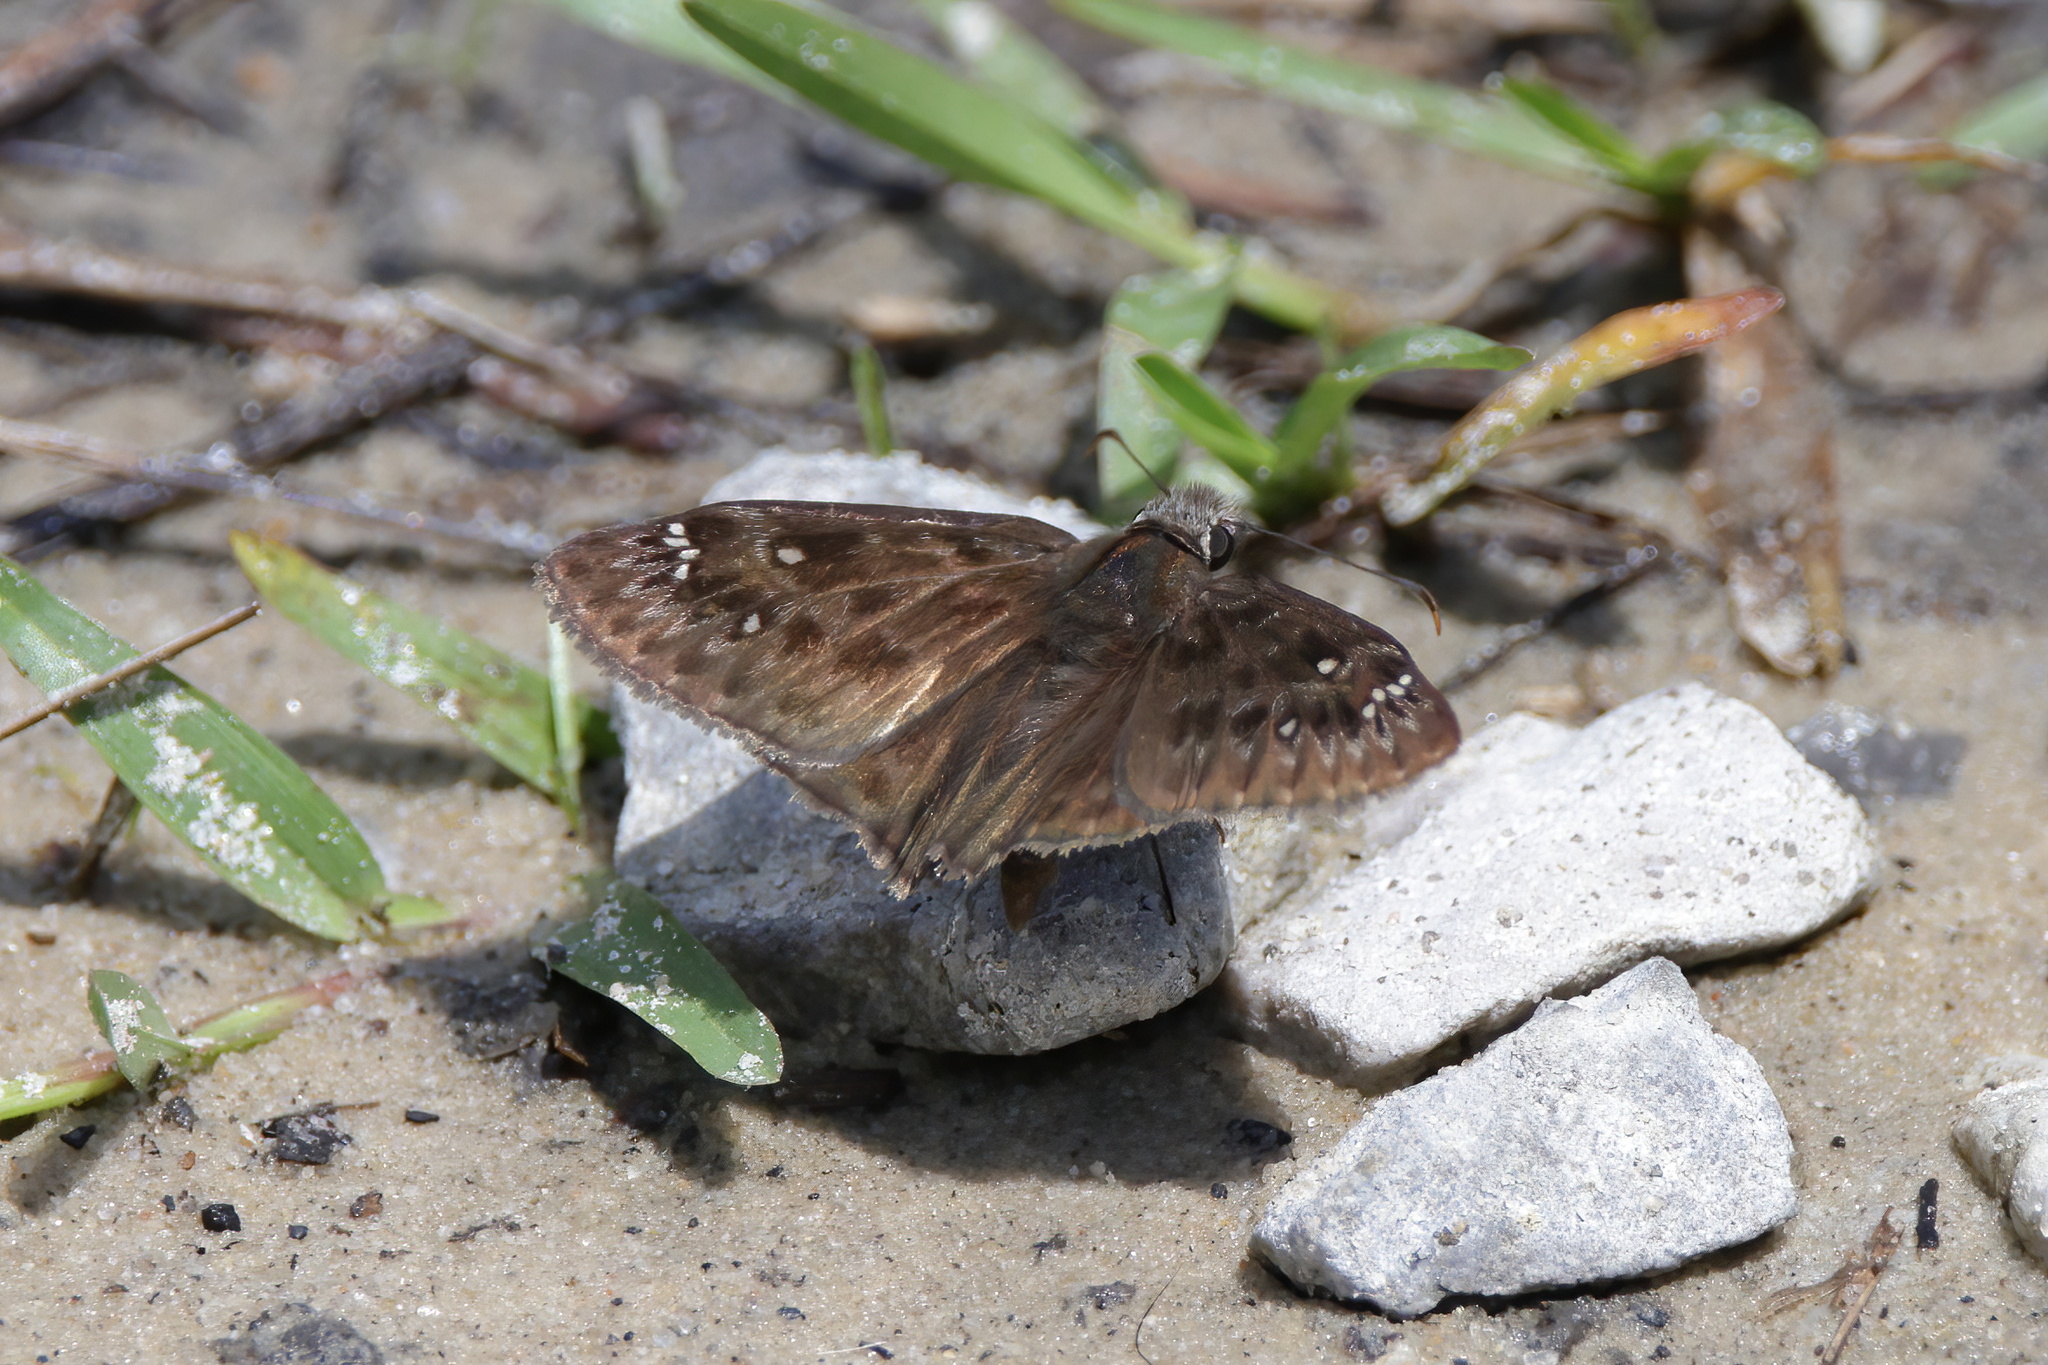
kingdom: Animalia
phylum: Arthropoda
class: Insecta
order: Lepidoptera
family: Hesperiidae
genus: Erynnis
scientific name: Erynnis horatius
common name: Horace's duskywing
